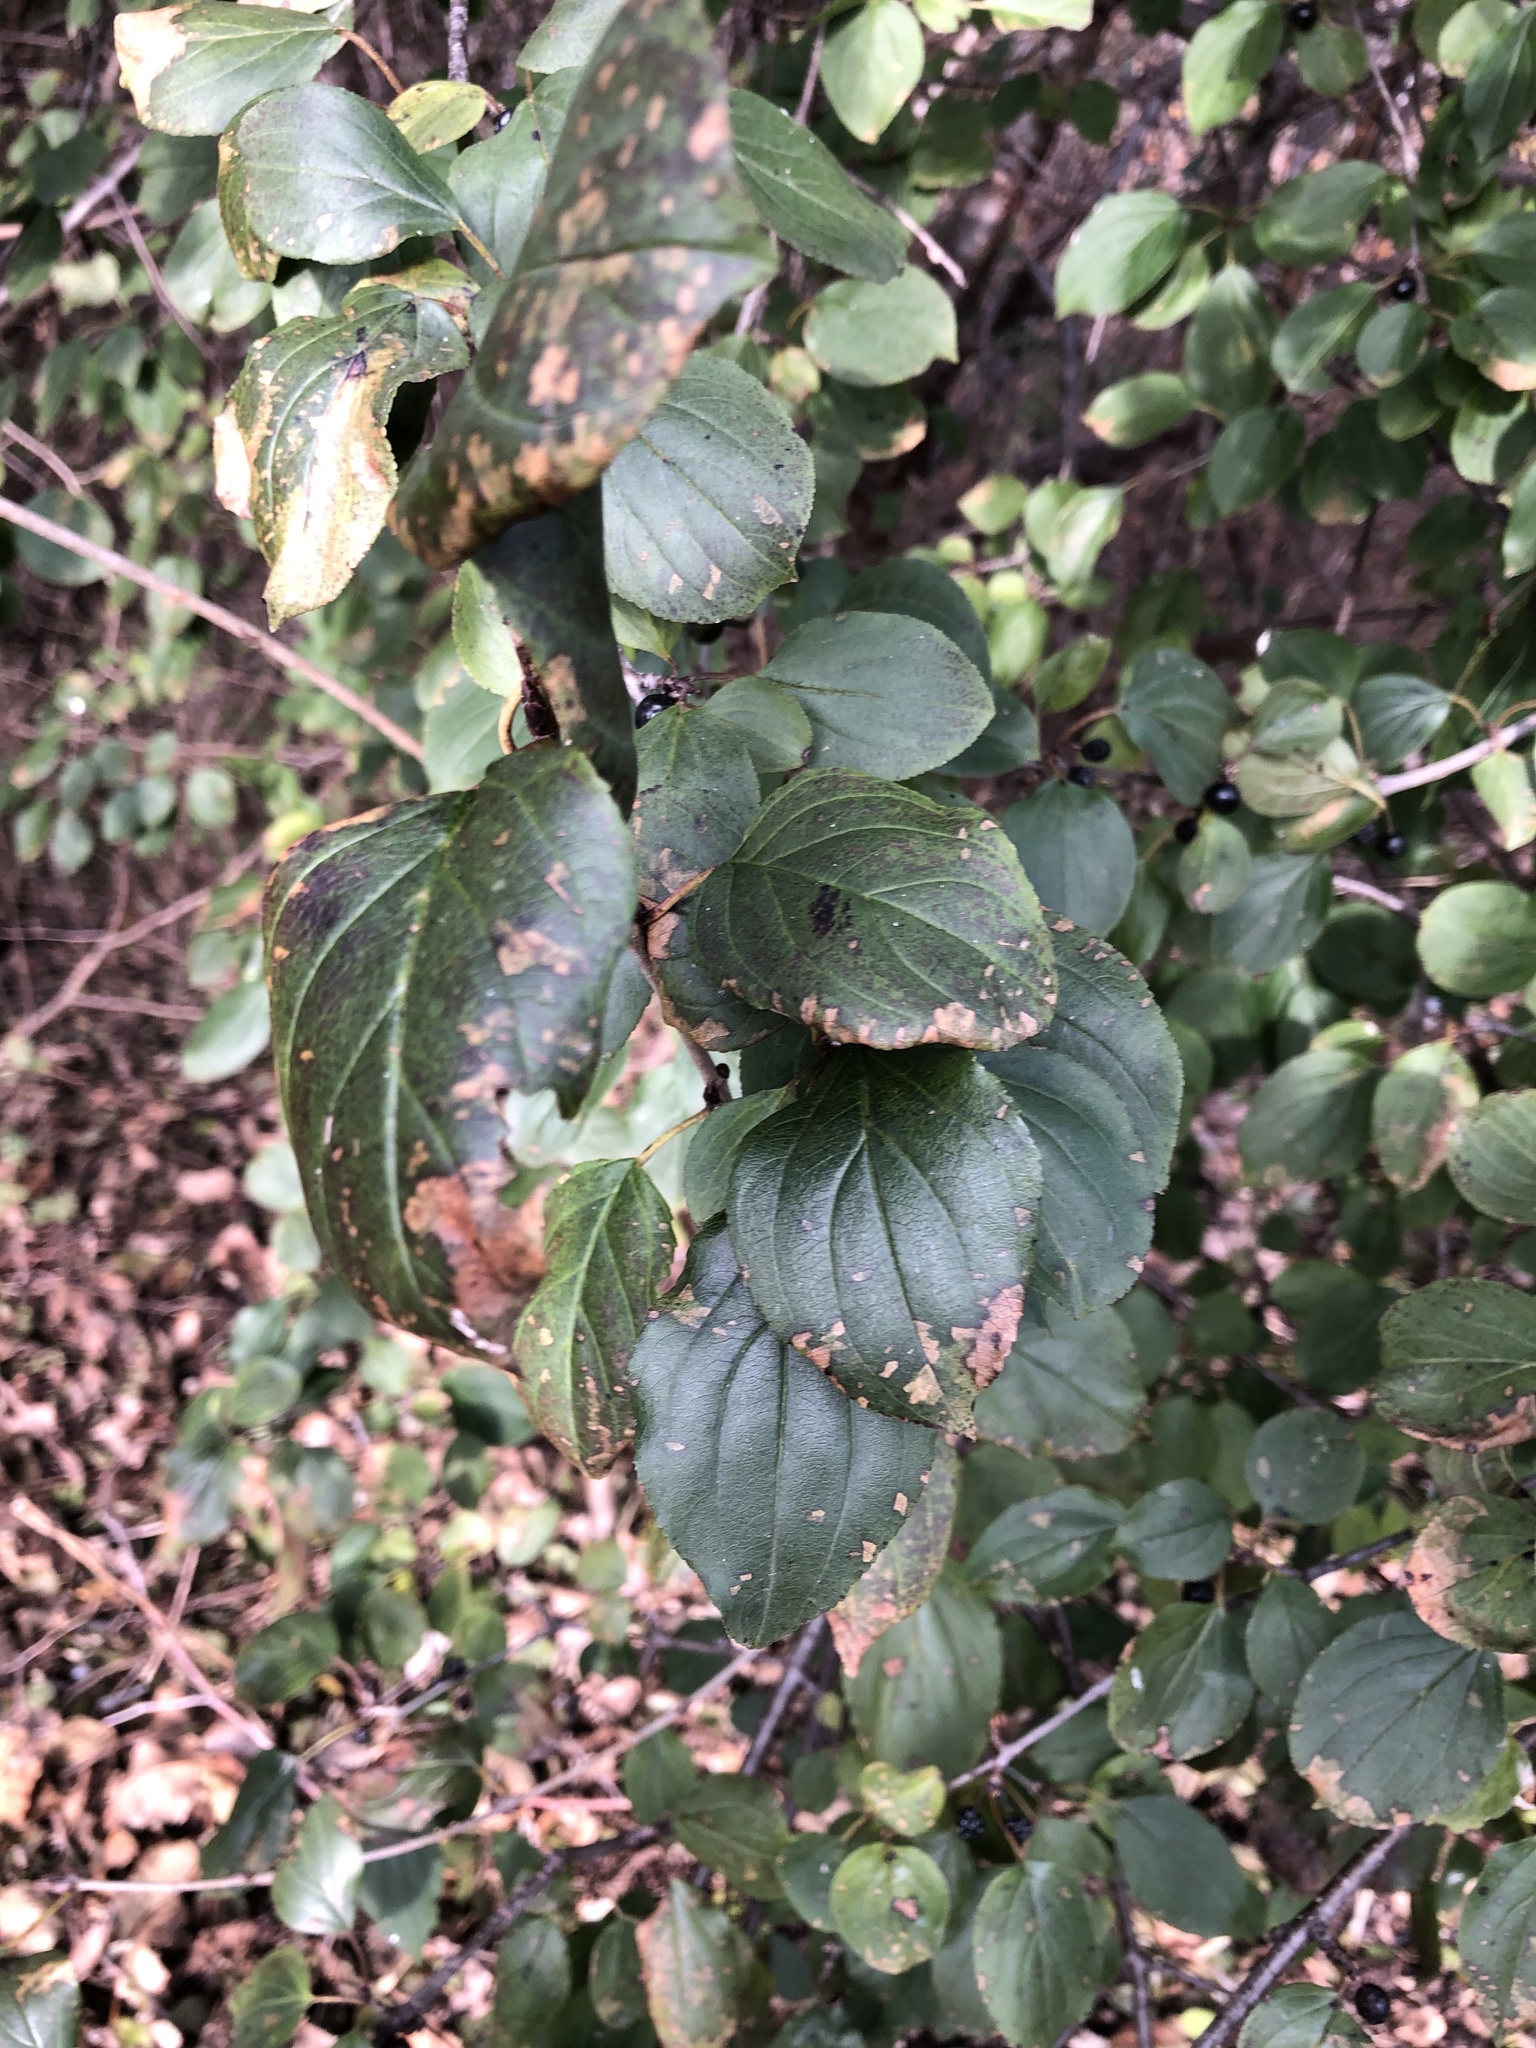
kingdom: Plantae
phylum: Tracheophyta
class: Magnoliopsida
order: Rosales
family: Rhamnaceae
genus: Rhamnus
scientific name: Rhamnus cathartica
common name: Common buckthorn
